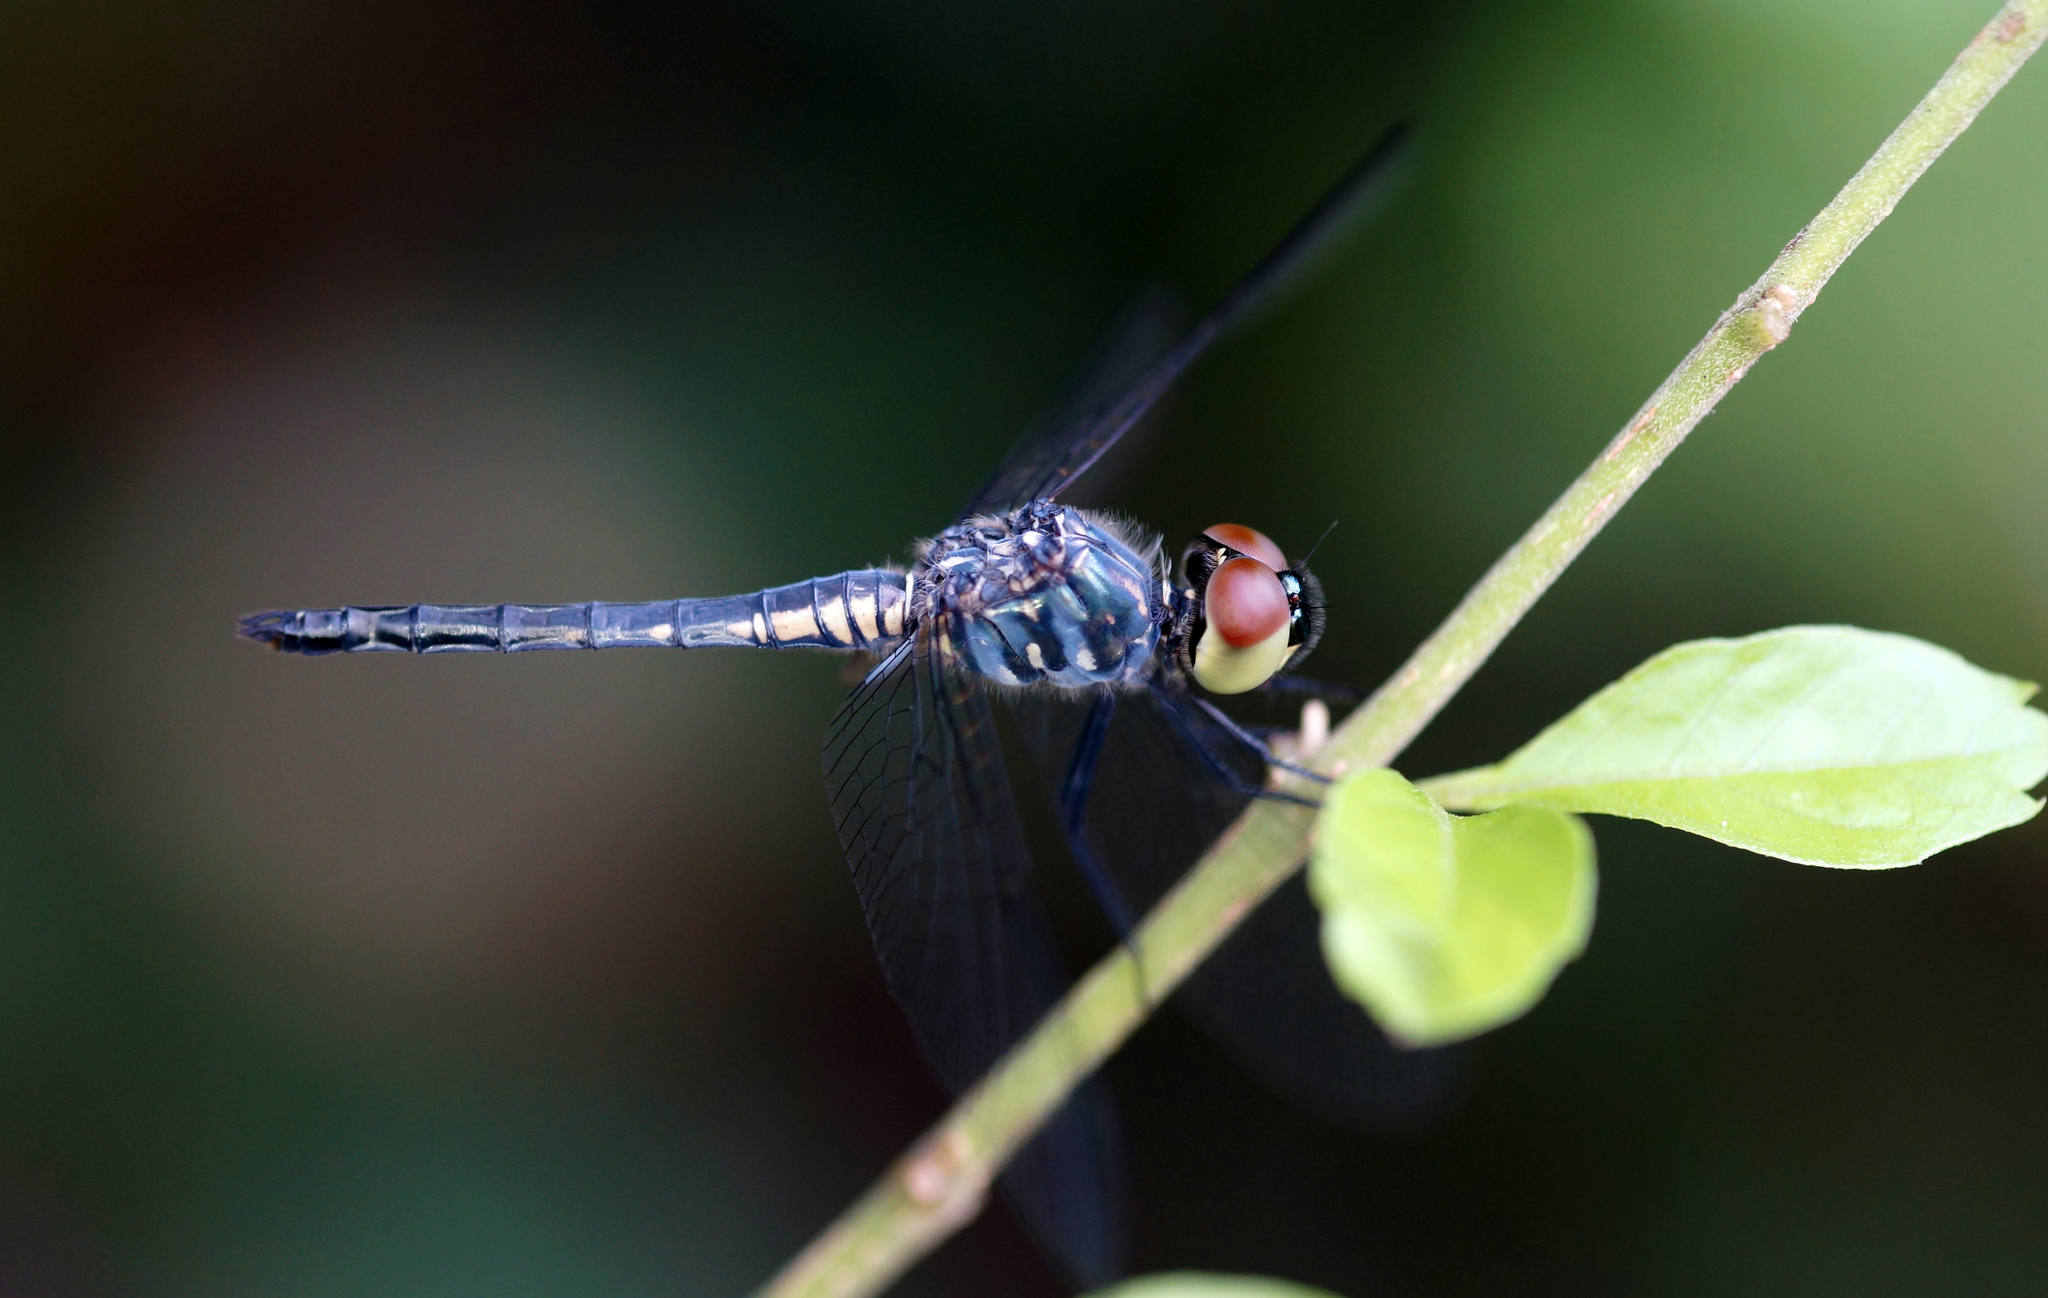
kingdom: Animalia
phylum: Arthropoda
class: Insecta
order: Odonata
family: Libellulidae
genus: Brachydiplax
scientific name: Brachydiplax sobrina
